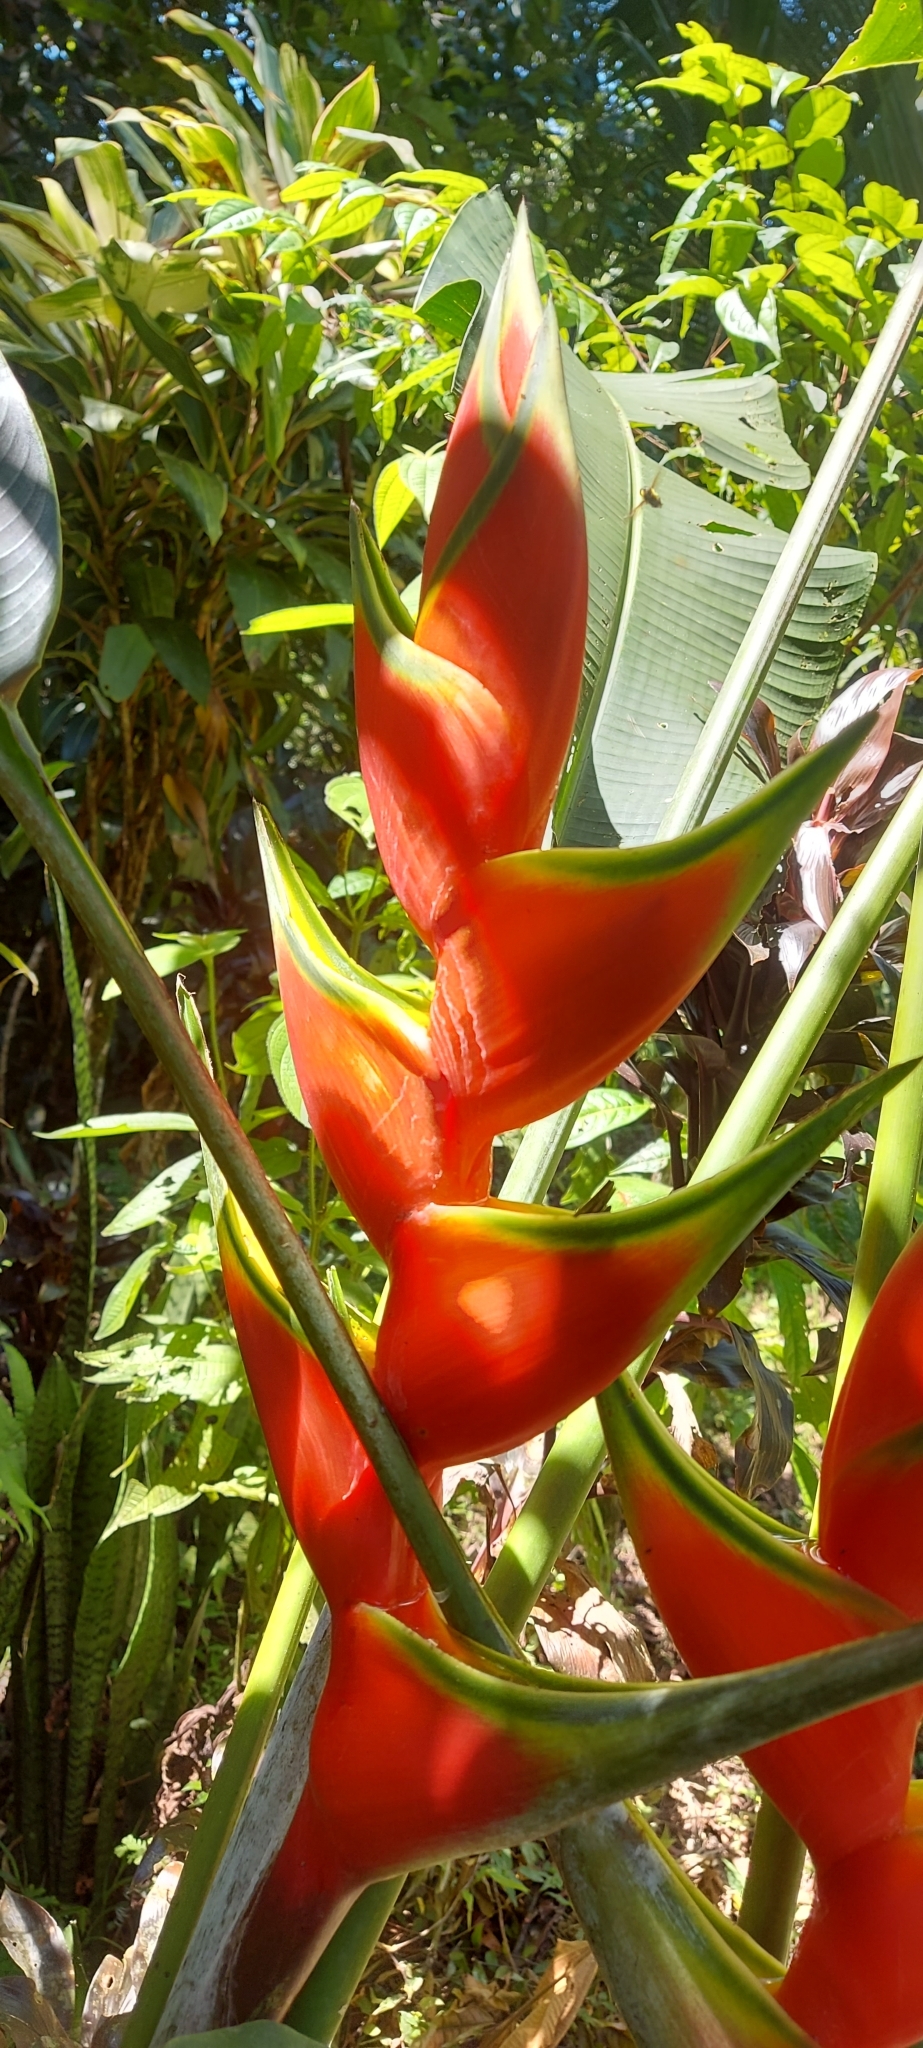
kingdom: Plantae
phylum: Tracheophyta
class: Liliopsida
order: Zingiberales
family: Heliconiaceae
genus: Heliconia
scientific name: Heliconia bihai
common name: Macaw flower
